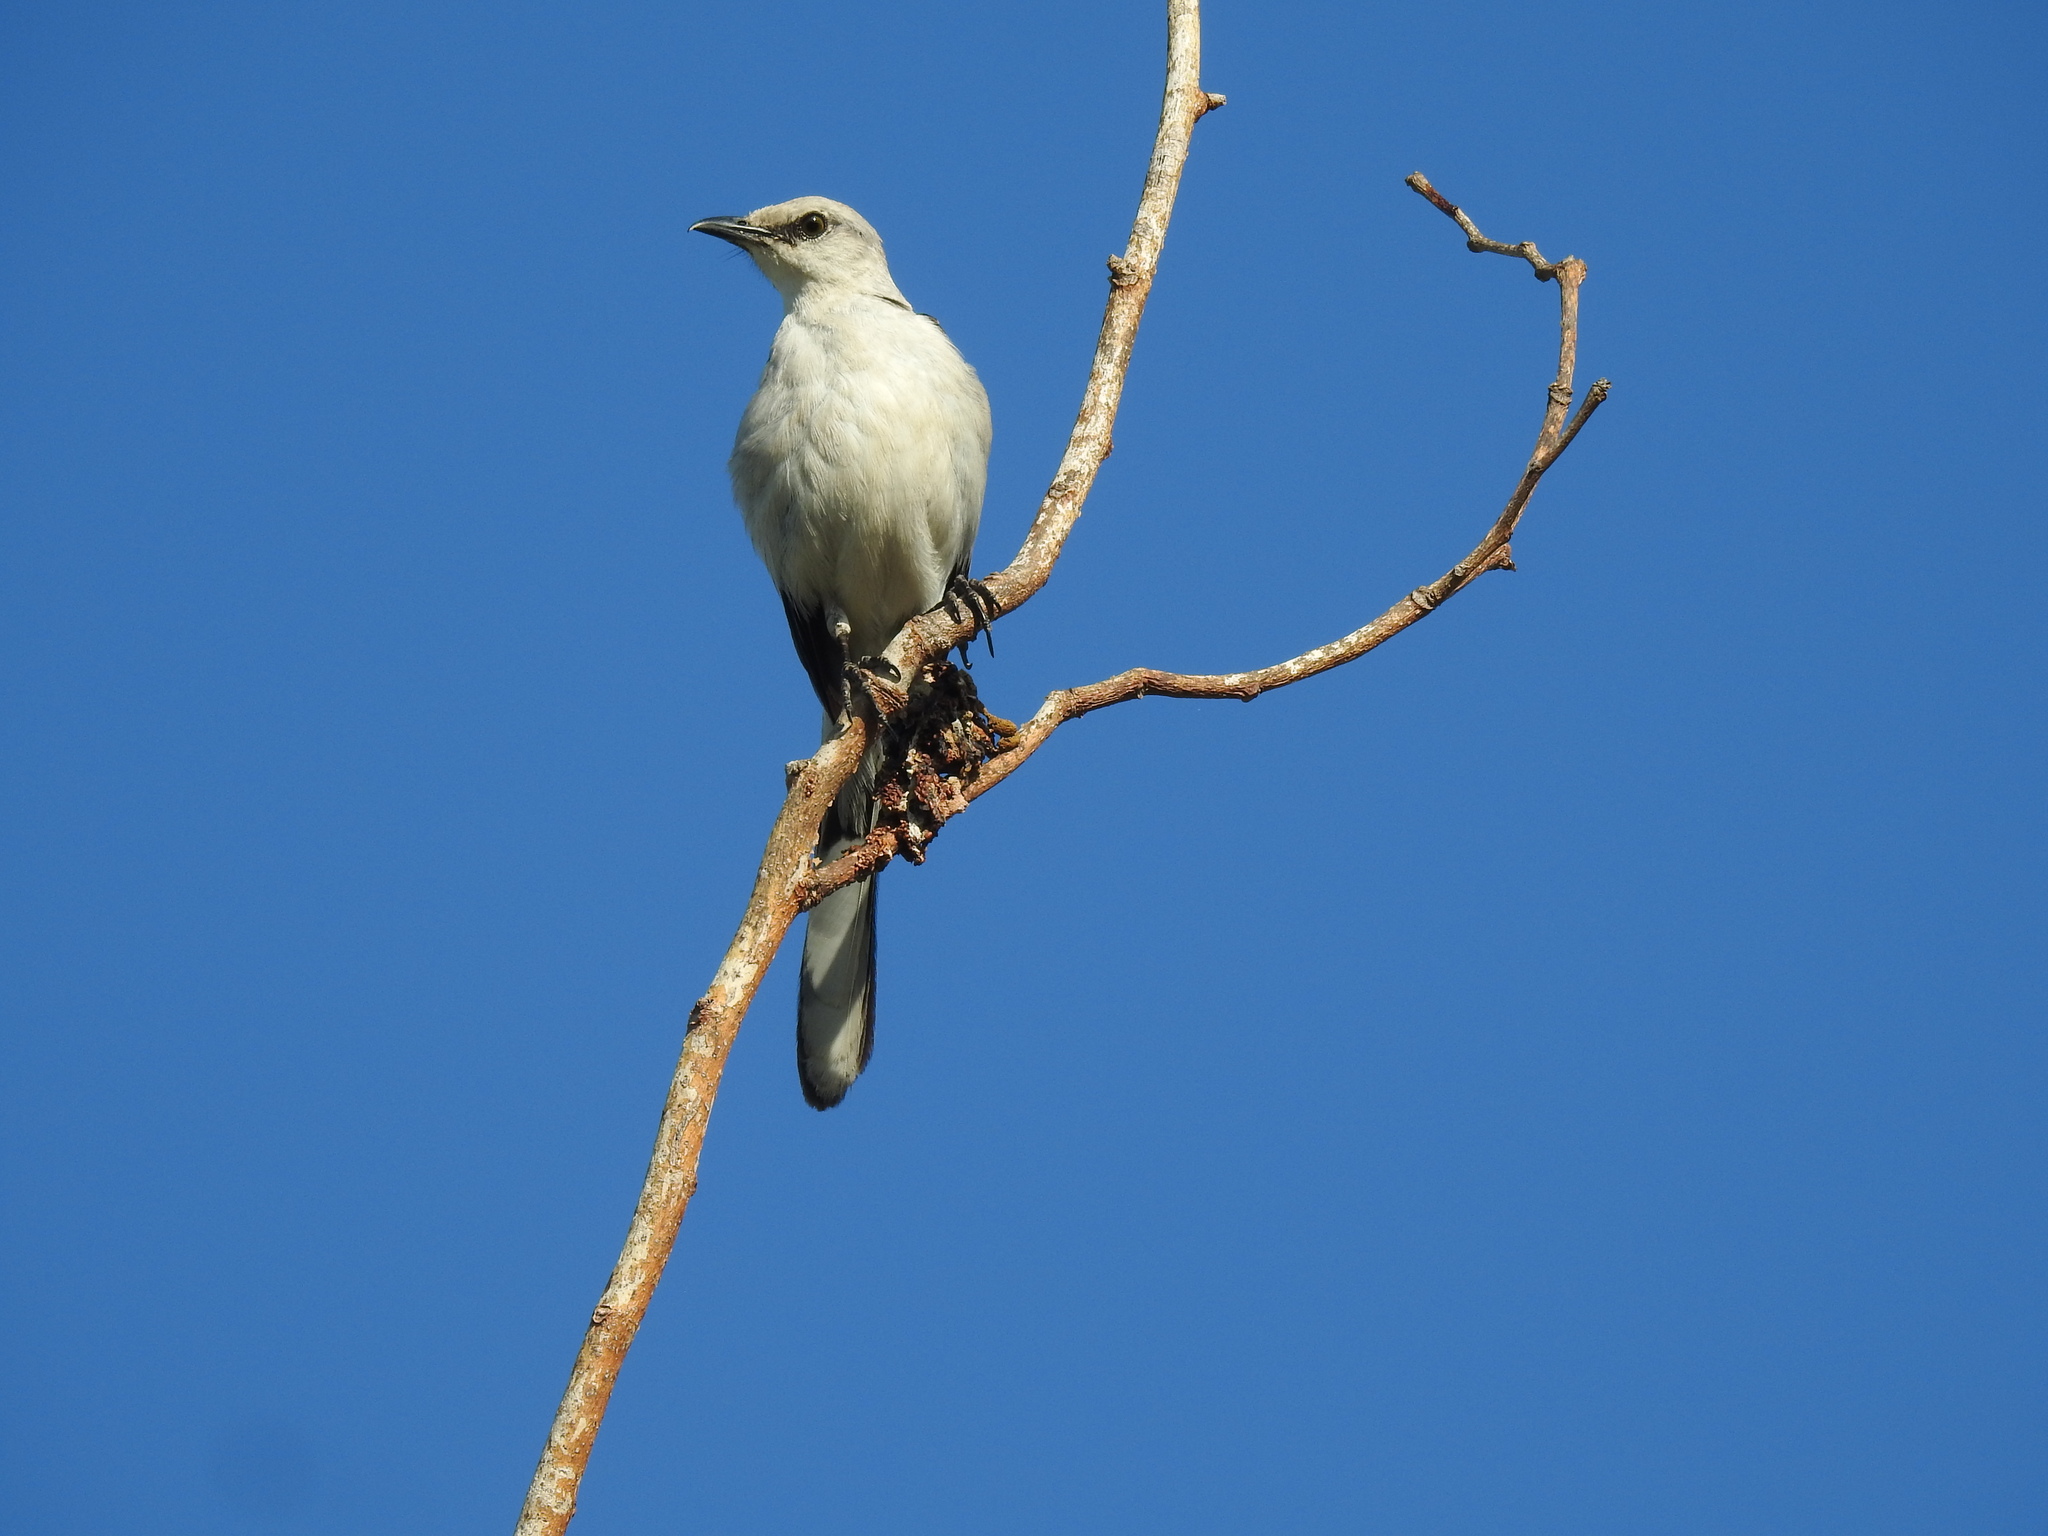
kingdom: Animalia
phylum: Chordata
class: Aves
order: Passeriformes
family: Mimidae
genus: Mimus
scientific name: Mimus gilvus
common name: Tropical mockingbird
